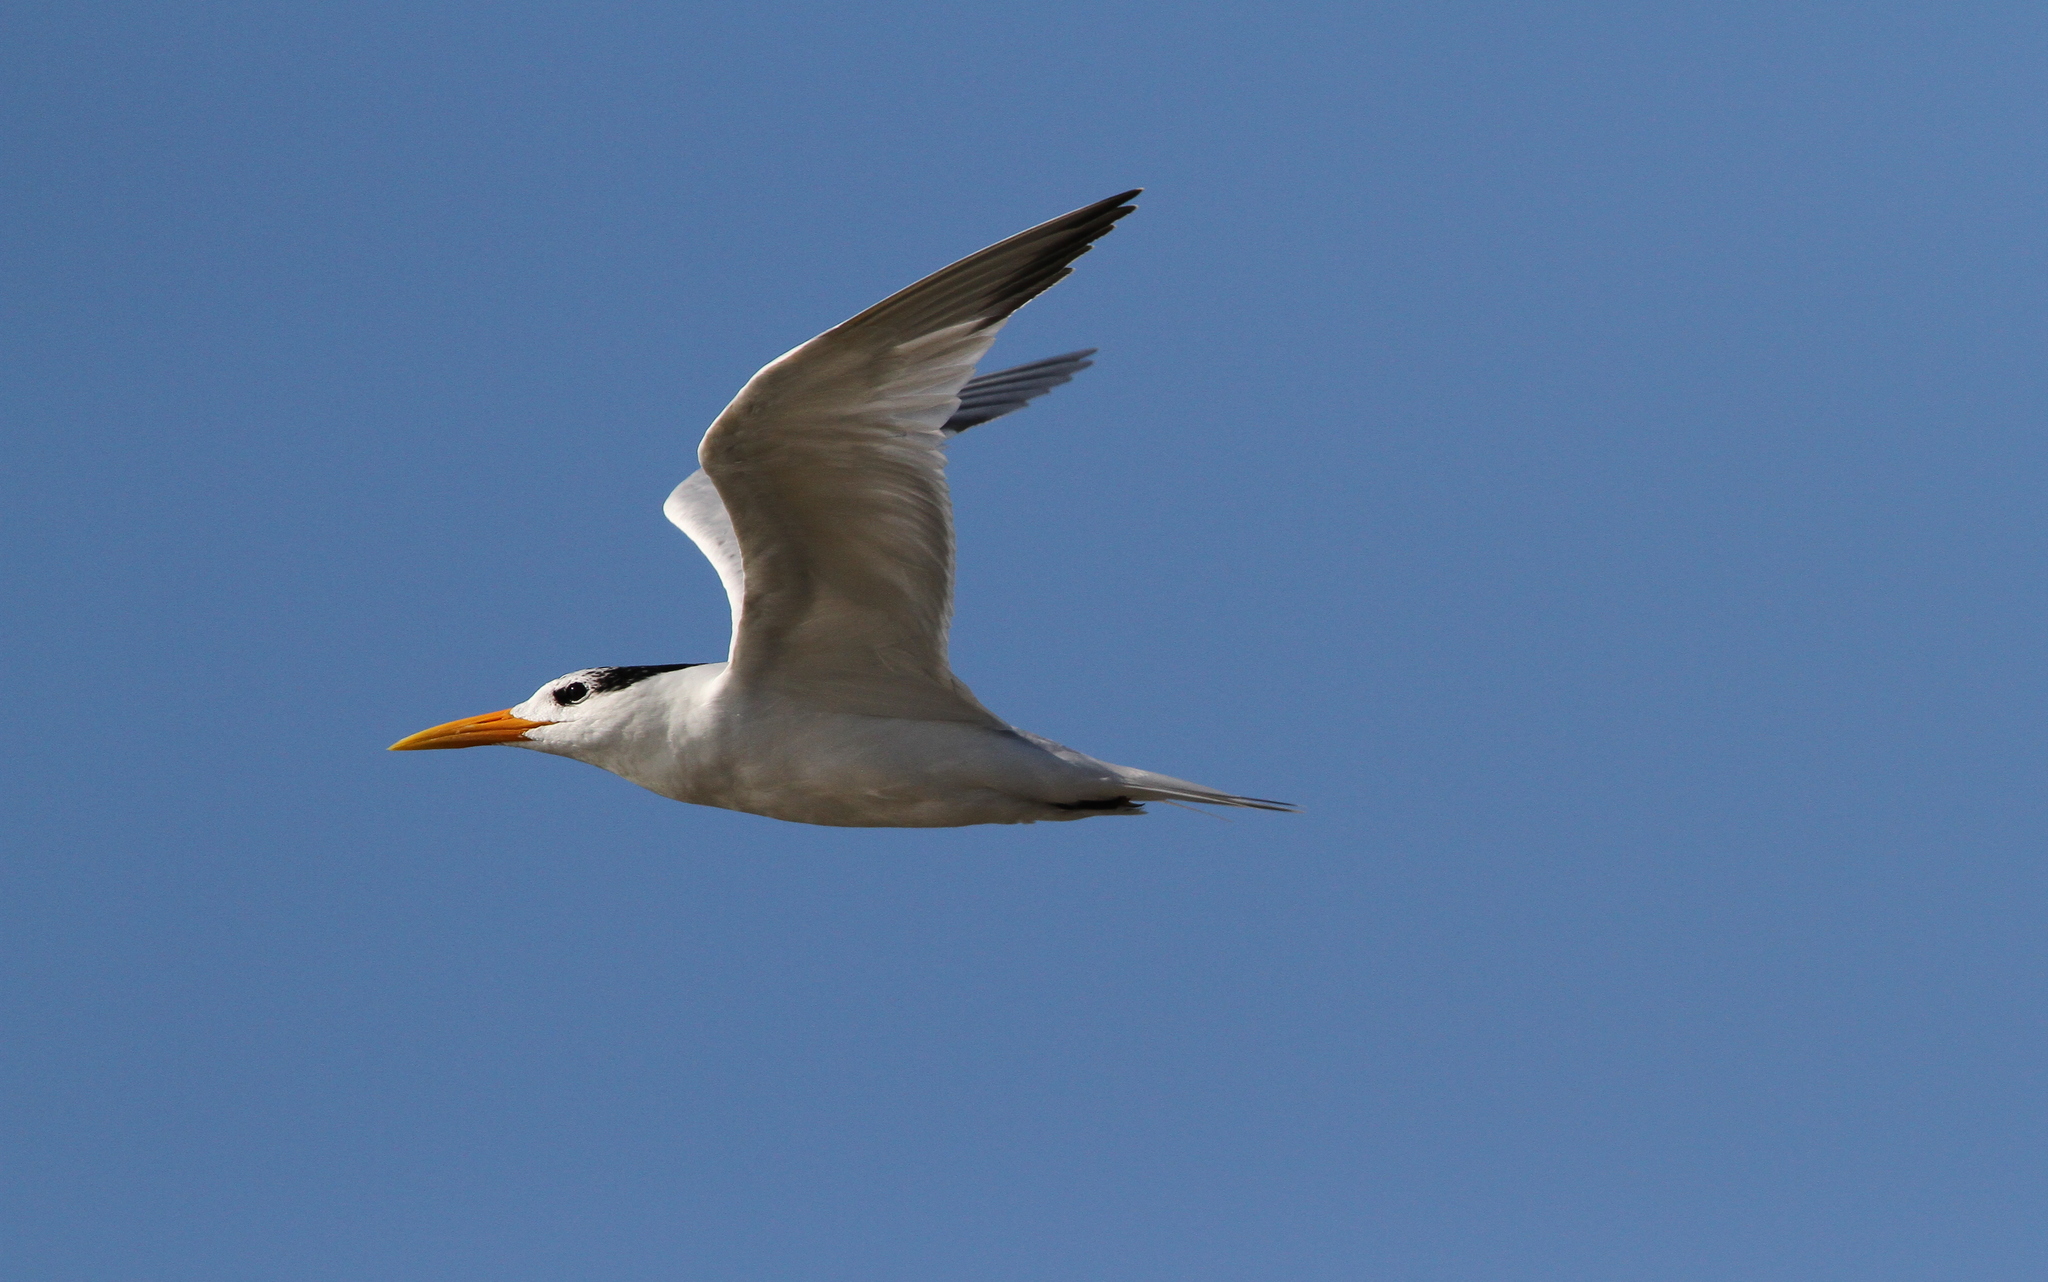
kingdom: Animalia
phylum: Chordata
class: Aves
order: Charadriiformes
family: Laridae
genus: Thalasseus
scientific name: Thalasseus albididorsalis
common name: West african crested tern
